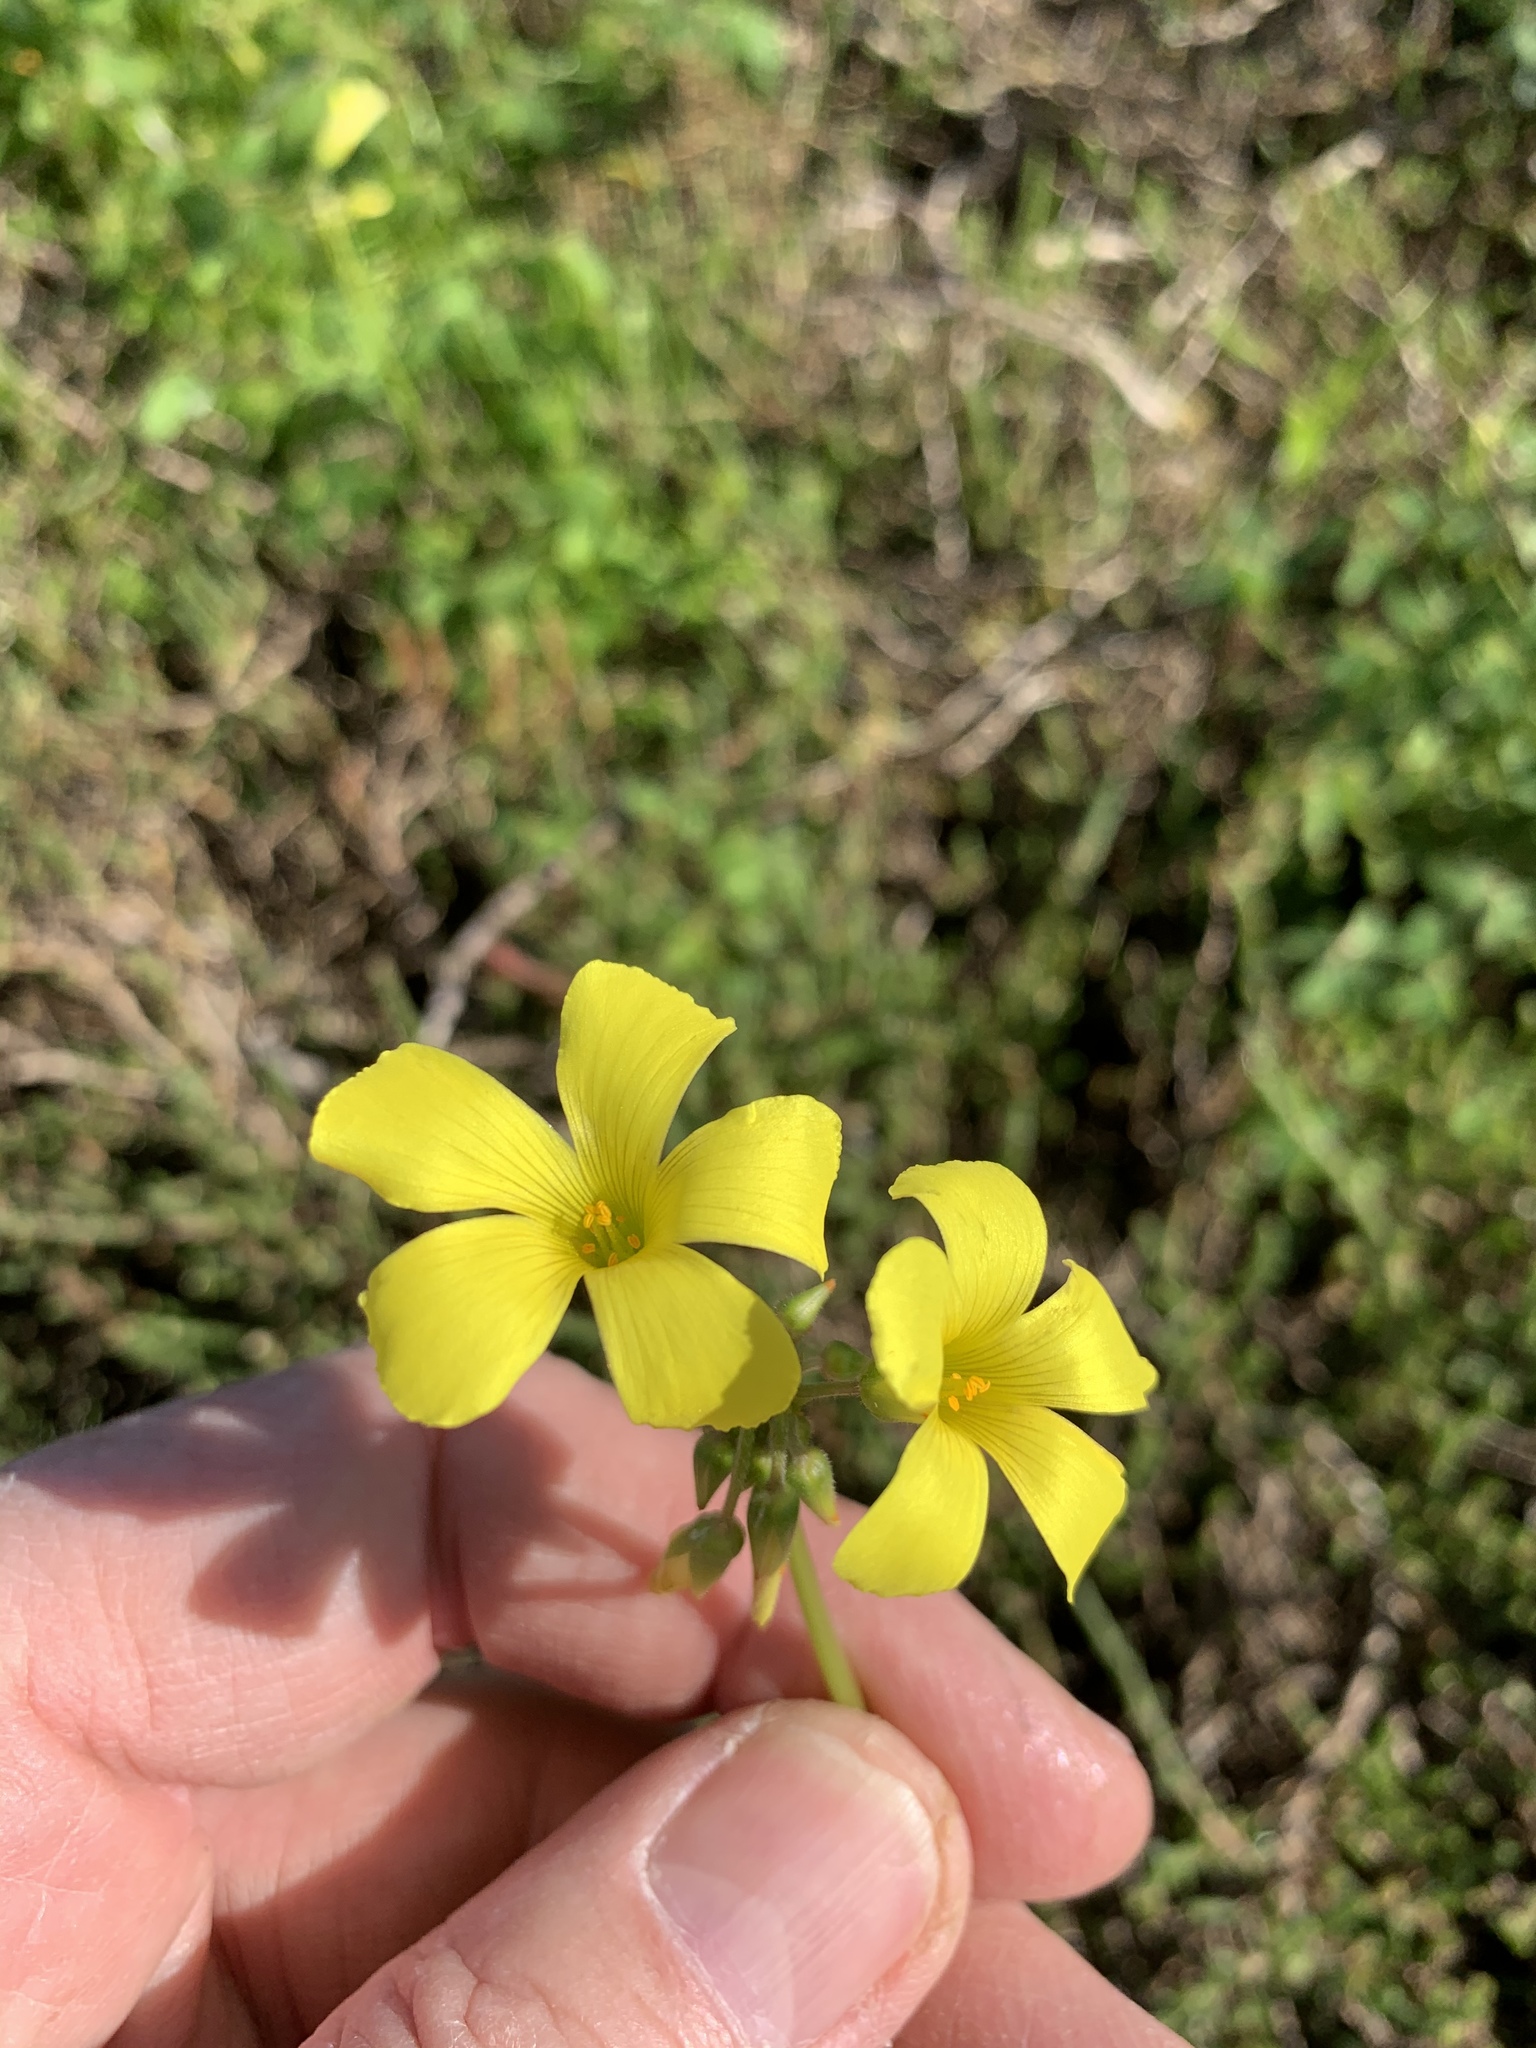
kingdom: Plantae
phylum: Tracheophyta
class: Magnoliopsida
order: Oxalidales
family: Oxalidaceae
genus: Oxalis
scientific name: Oxalis pes-caprae
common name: Bermuda-buttercup
